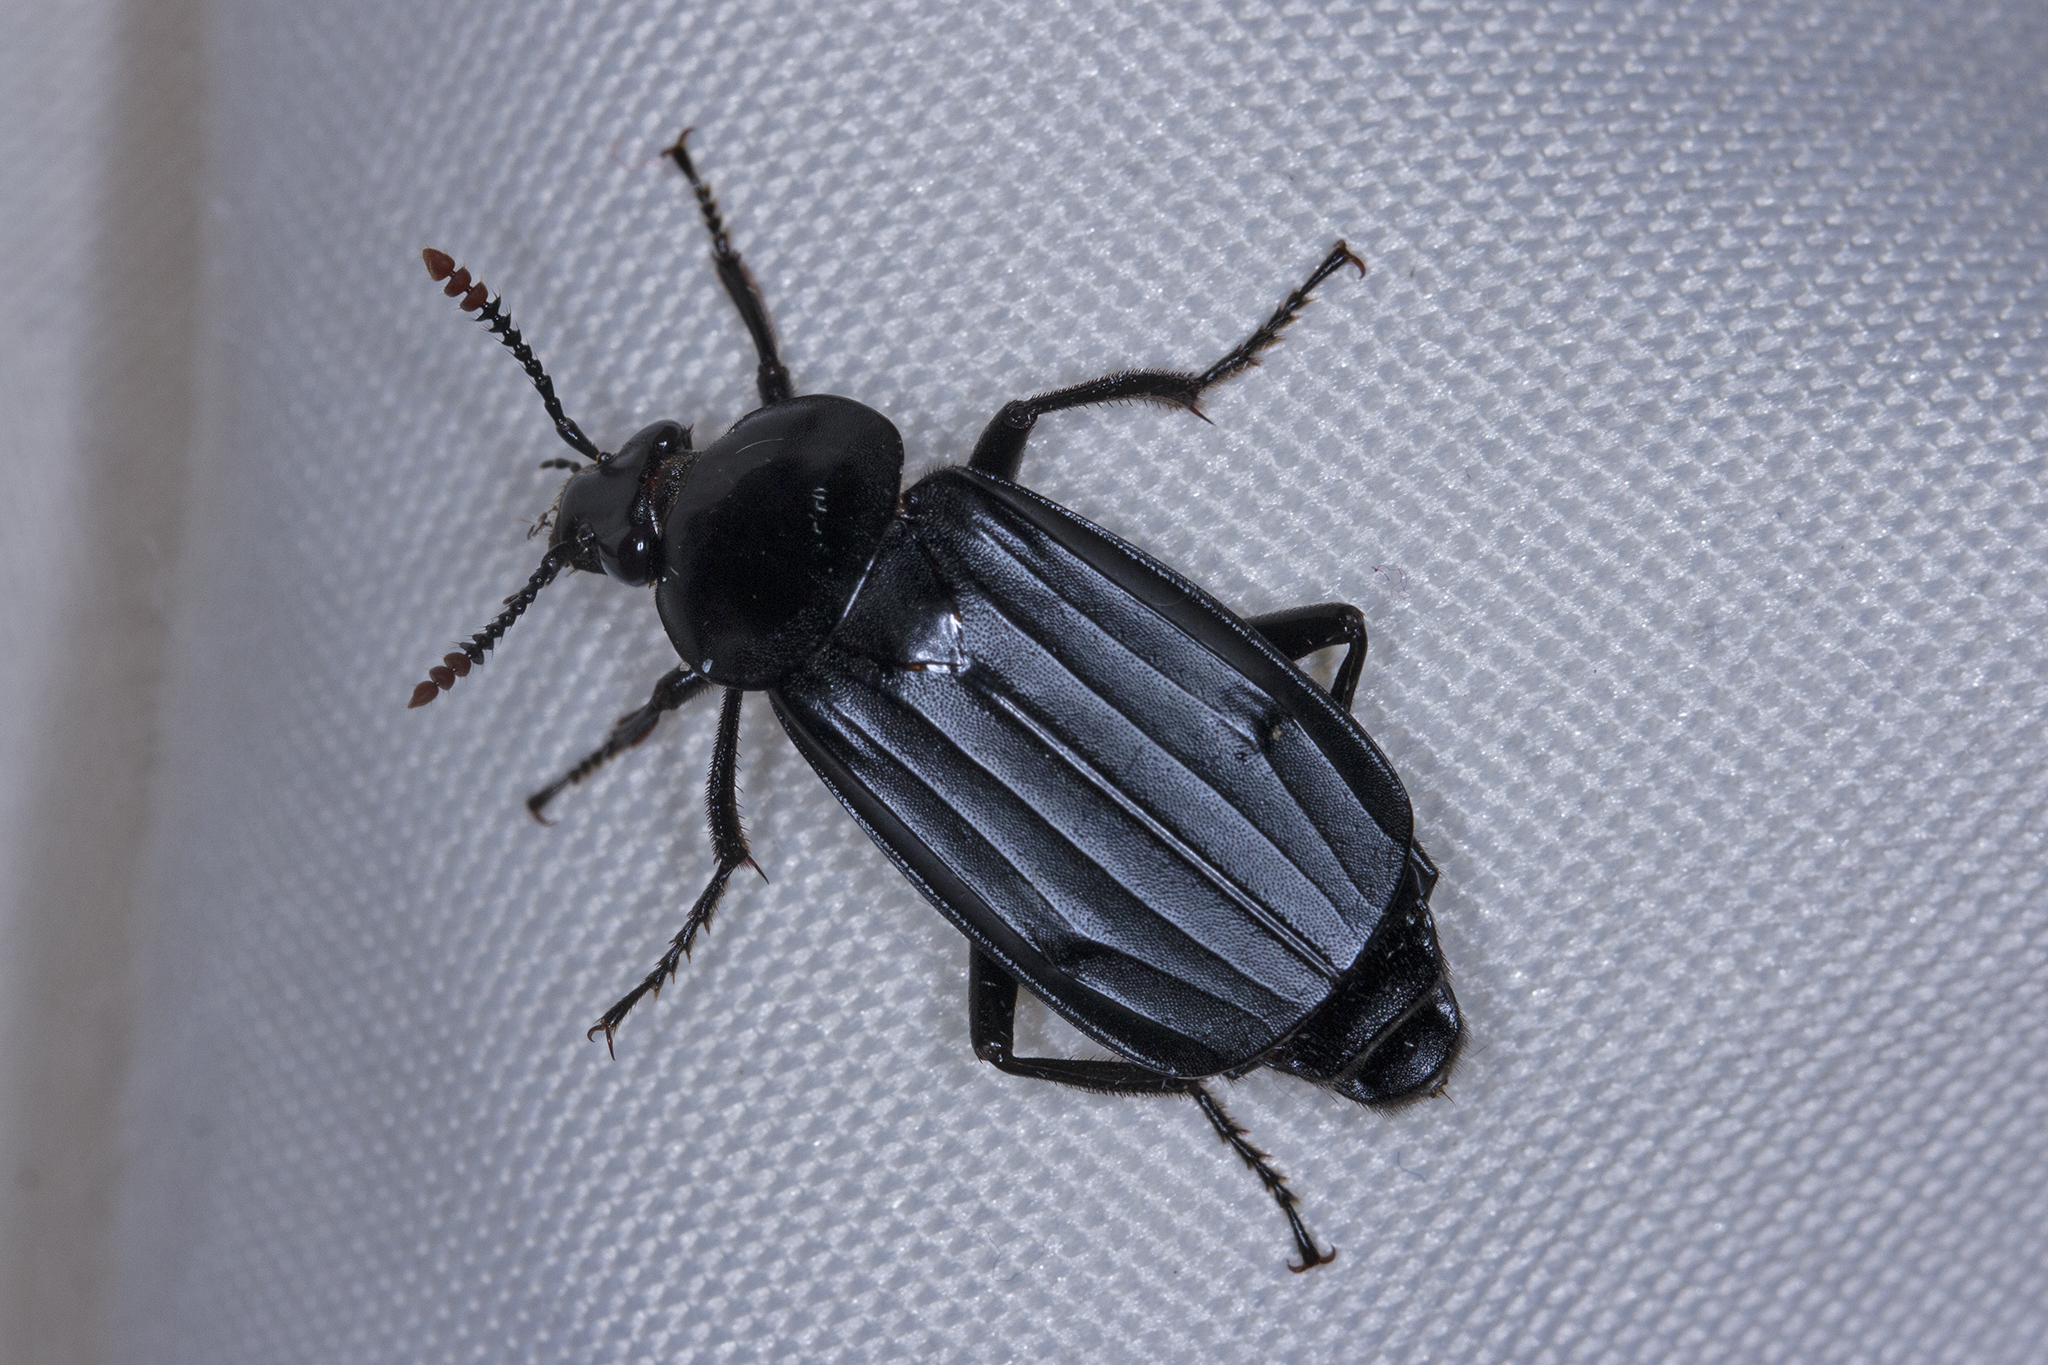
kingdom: Animalia
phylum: Arthropoda
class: Insecta
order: Coleoptera
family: Staphylinidae
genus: Necrodes
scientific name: Necrodes littoralis
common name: Shore sexton beetle
